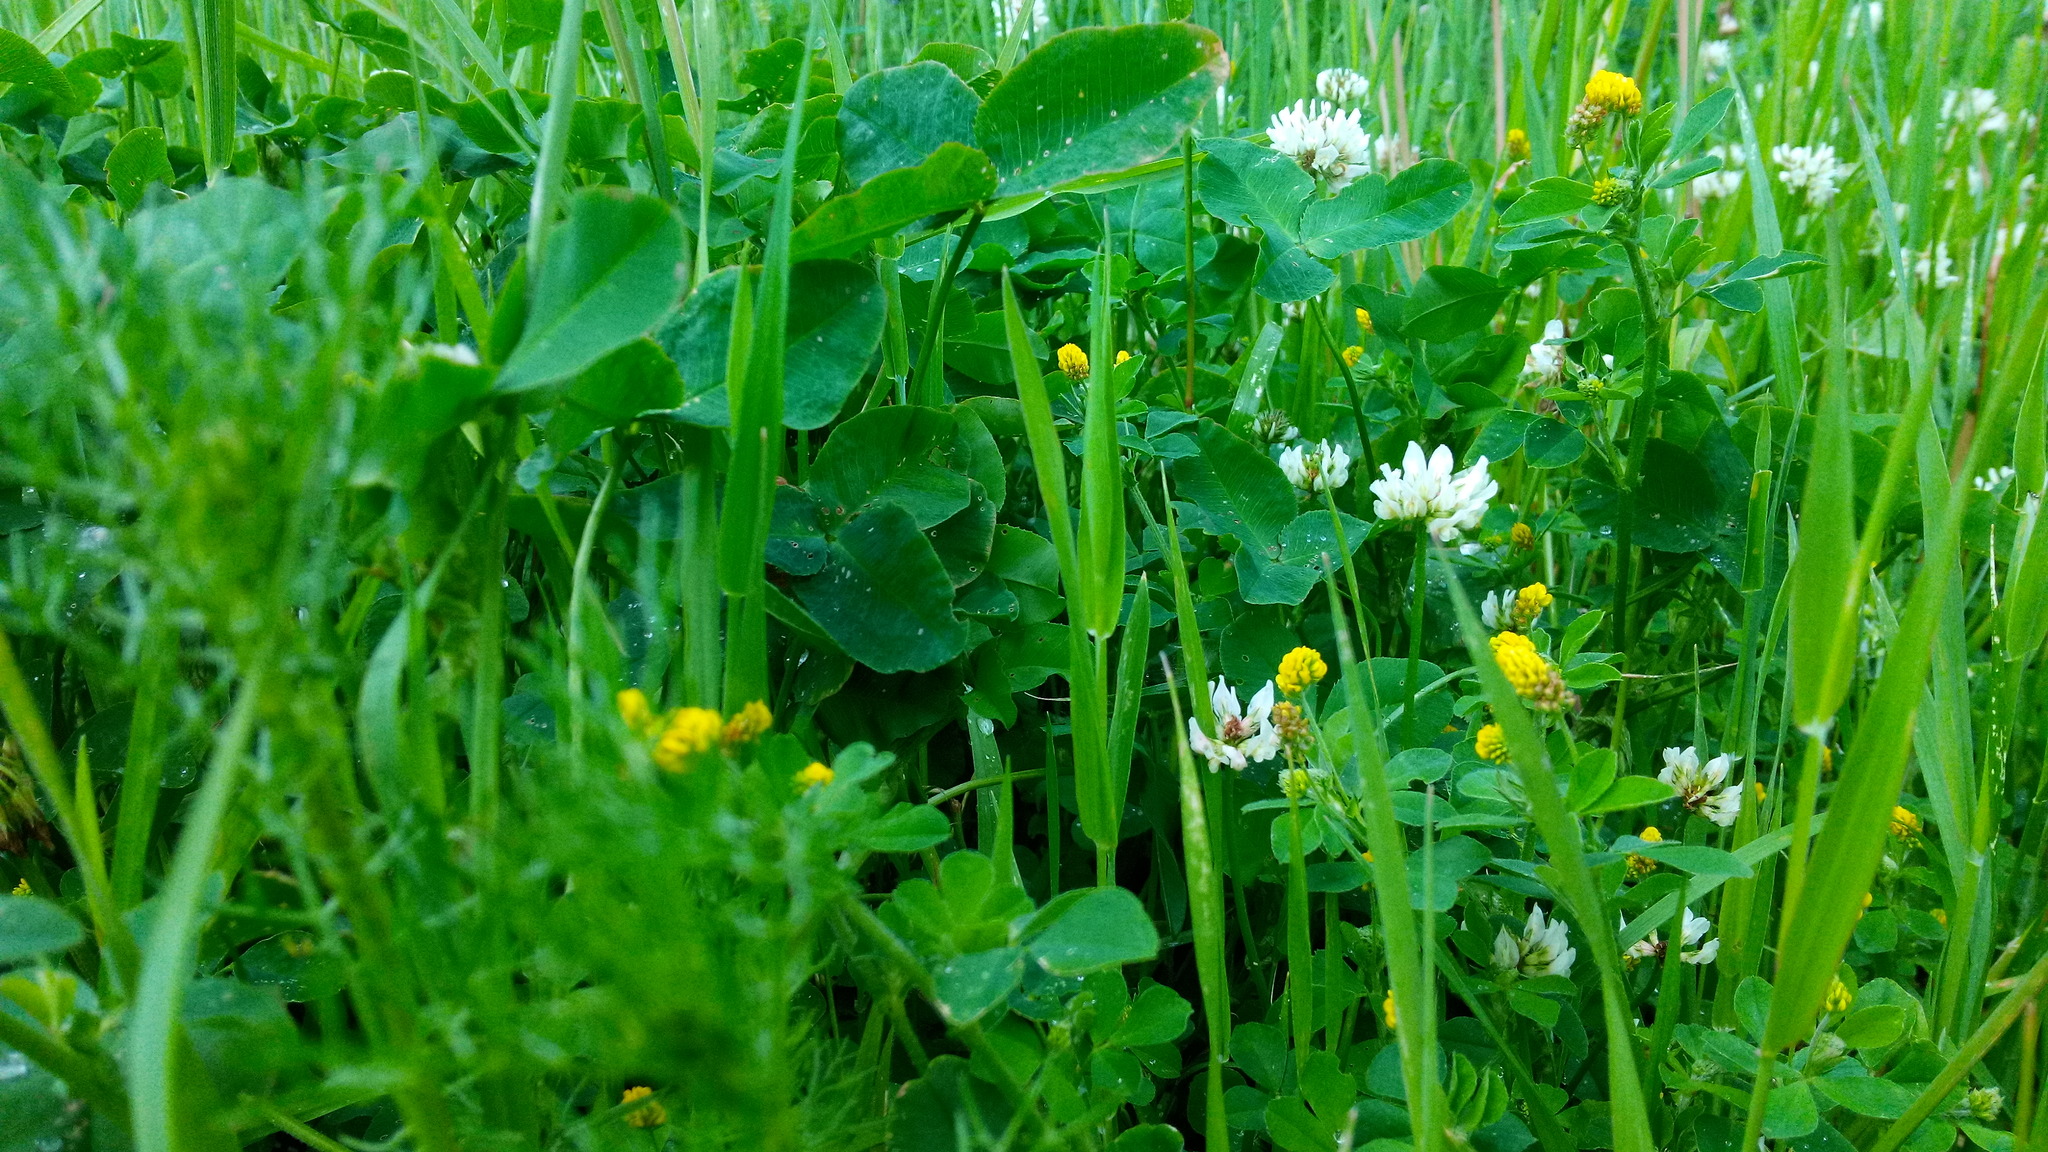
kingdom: Plantae
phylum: Tracheophyta
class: Magnoliopsida
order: Fabales
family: Fabaceae
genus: Medicago
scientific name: Medicago lupulina
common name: Black medick
